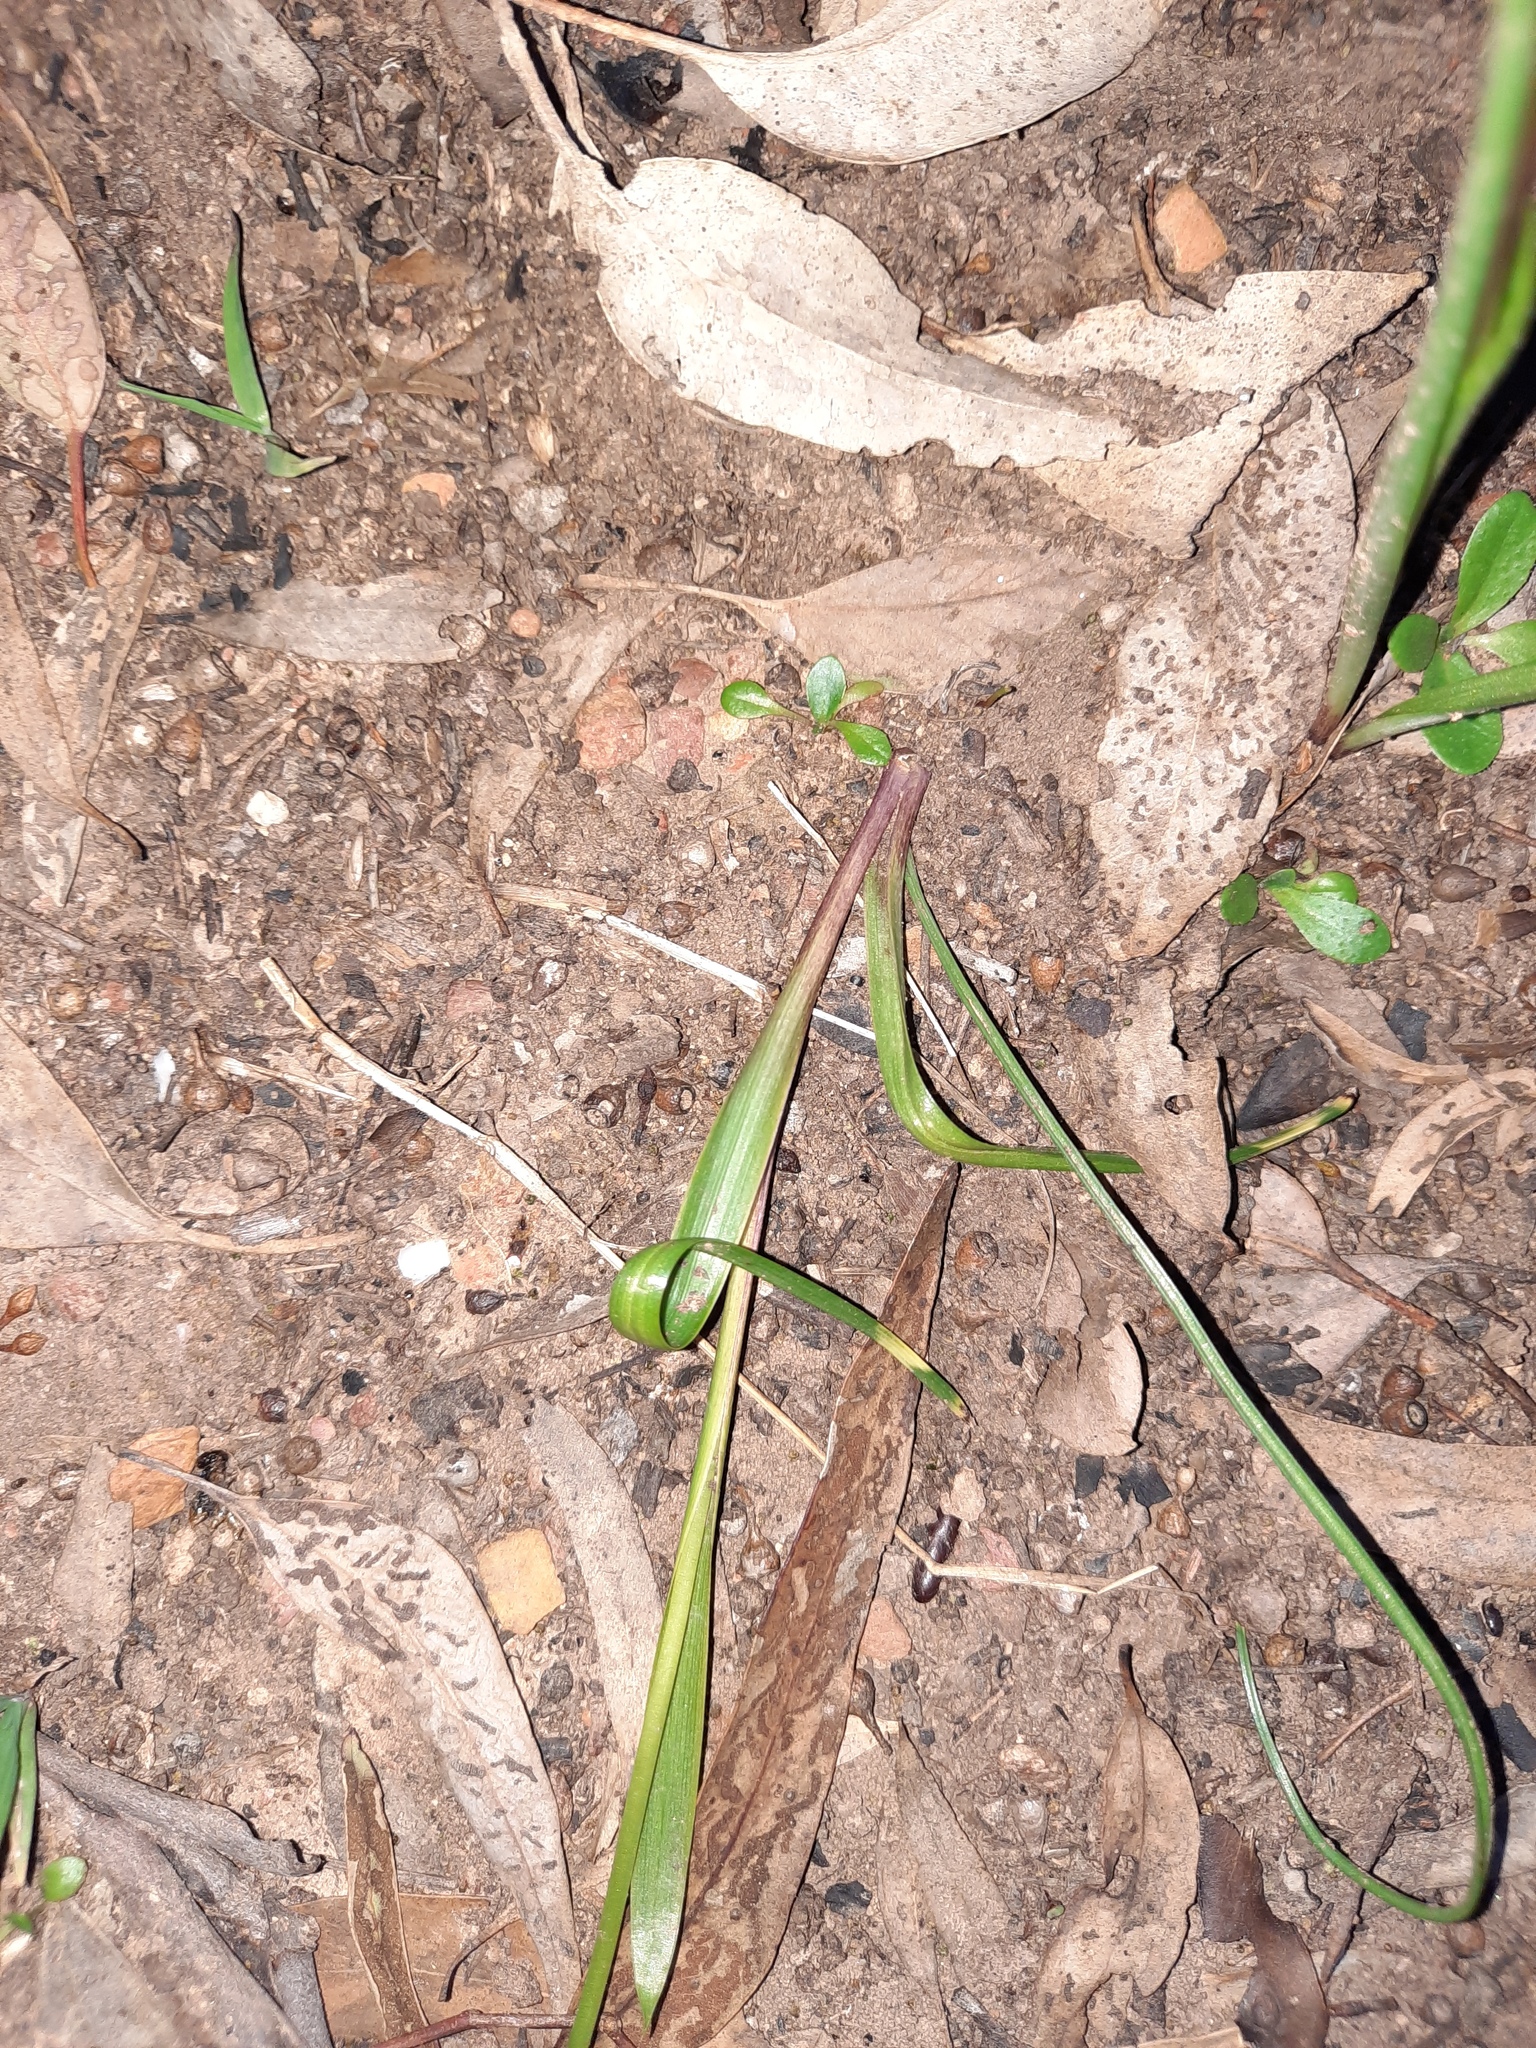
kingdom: Plantae
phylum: Tracheophyta
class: Liliopsida
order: Asparagales
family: Orchidaceae
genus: Diuris
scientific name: Diuris pardina
